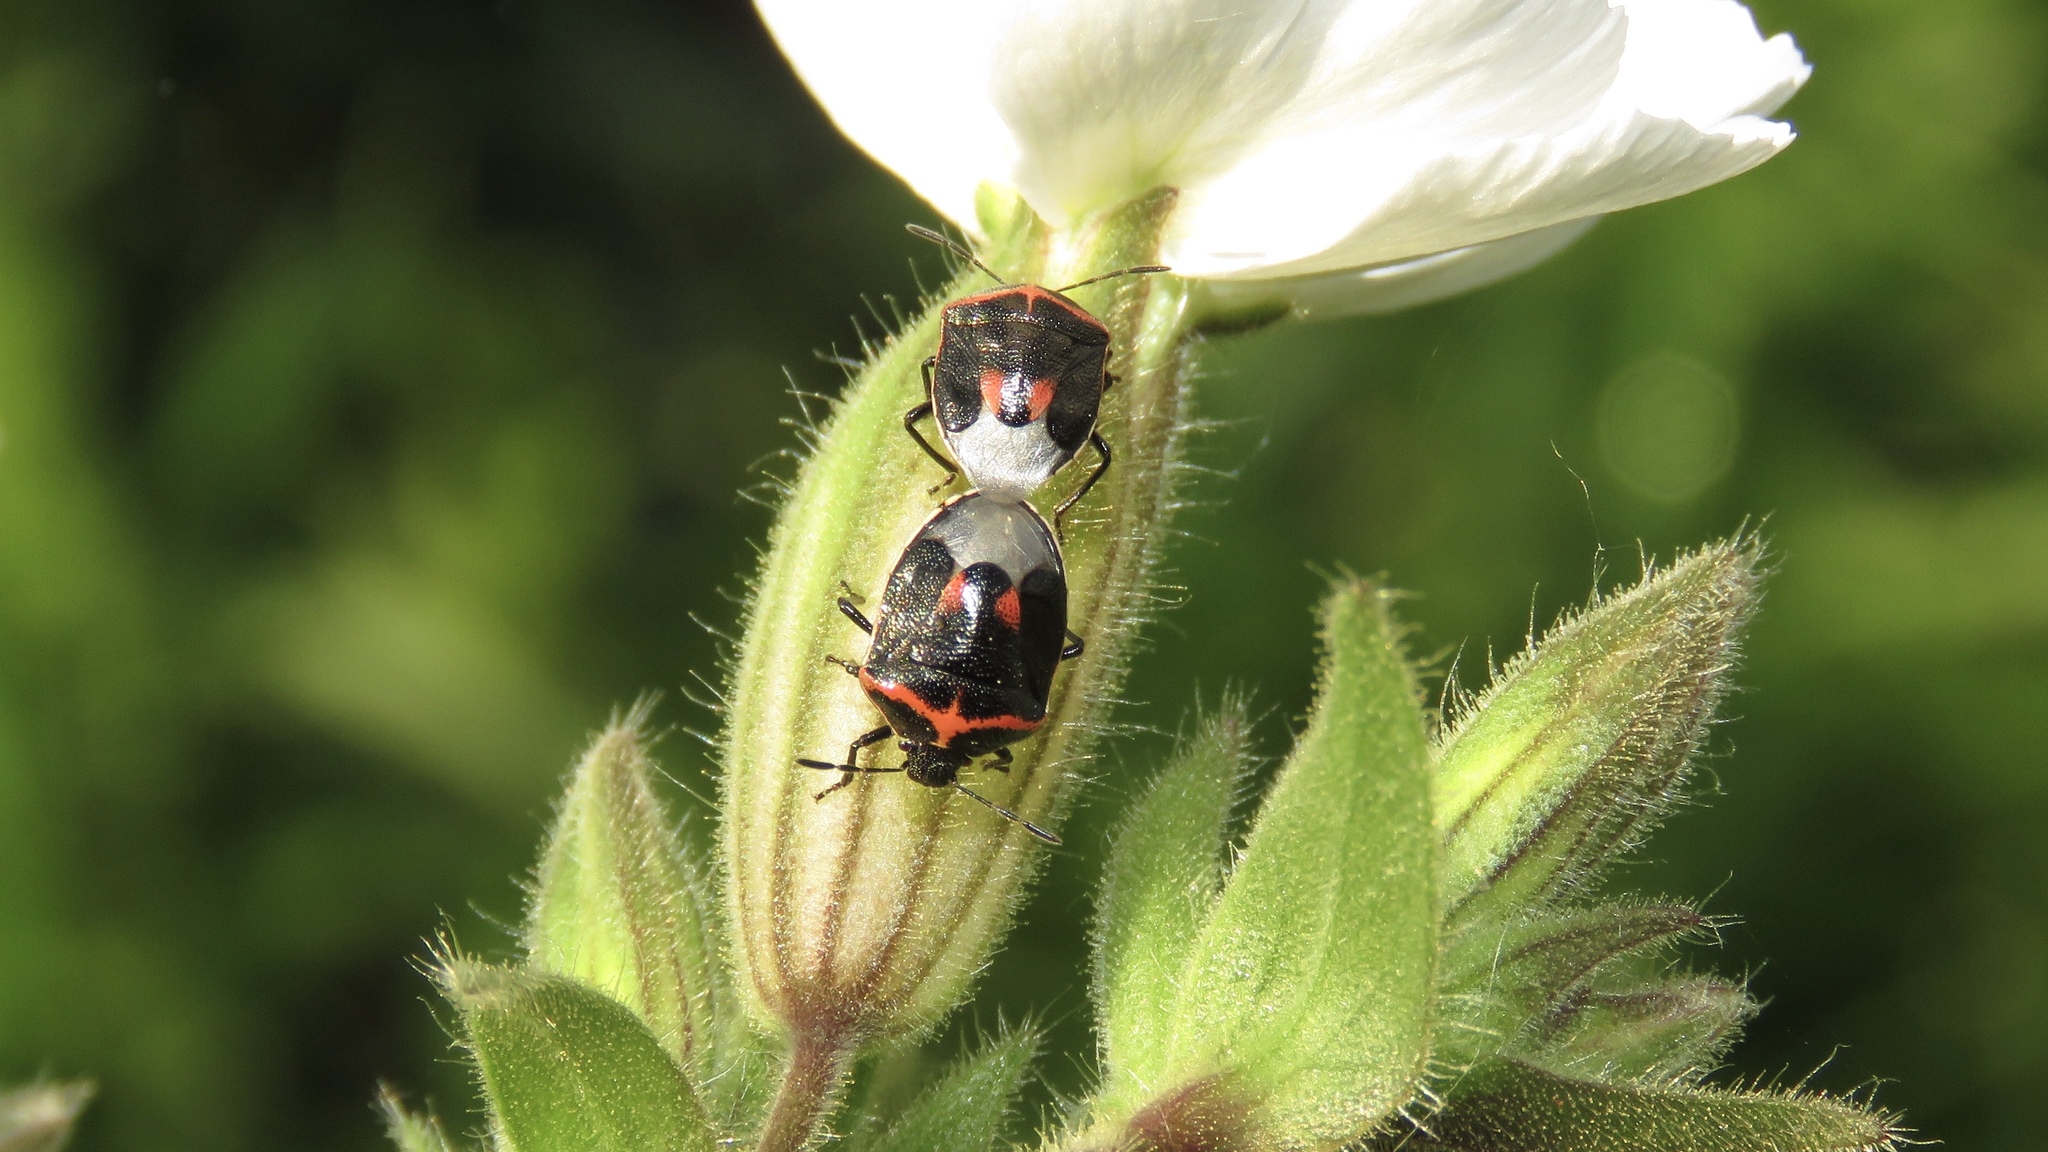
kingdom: Animalia
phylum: Arthropoda
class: Insecta
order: Hemiptera
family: Pentatomidae
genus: Cosmopepla
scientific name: Cosmopepla lintneriana
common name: Twice-stabbed stink bug
